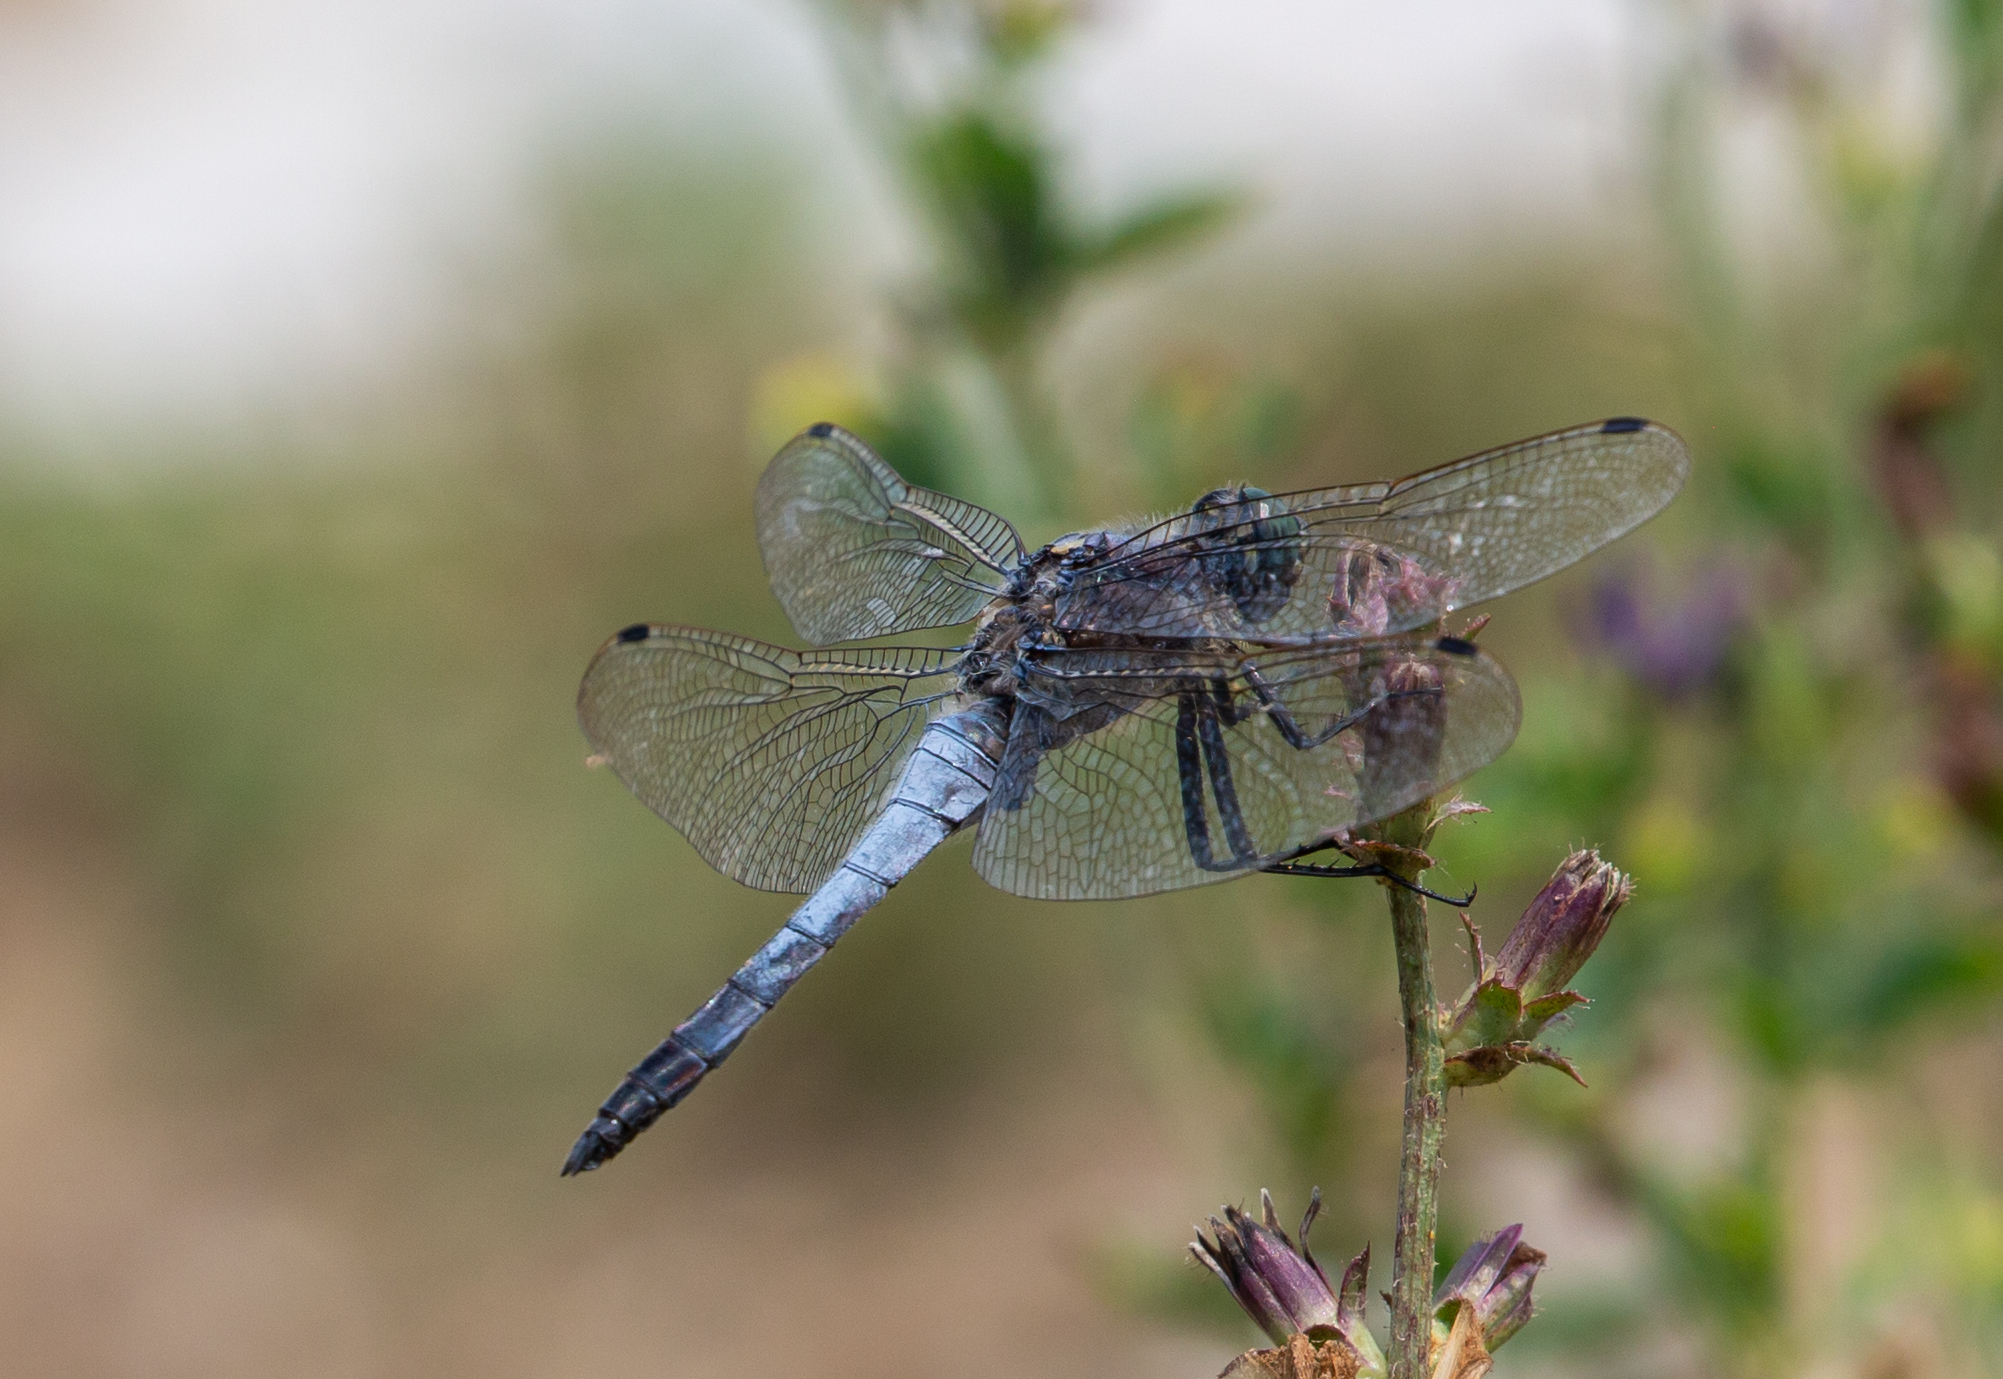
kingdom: Animalia
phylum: Arthropoda
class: Insecta
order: Odonata
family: Libellulidae
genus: Orthetrum
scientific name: Orthetrum cancellatum
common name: Black-tailed skimmer
